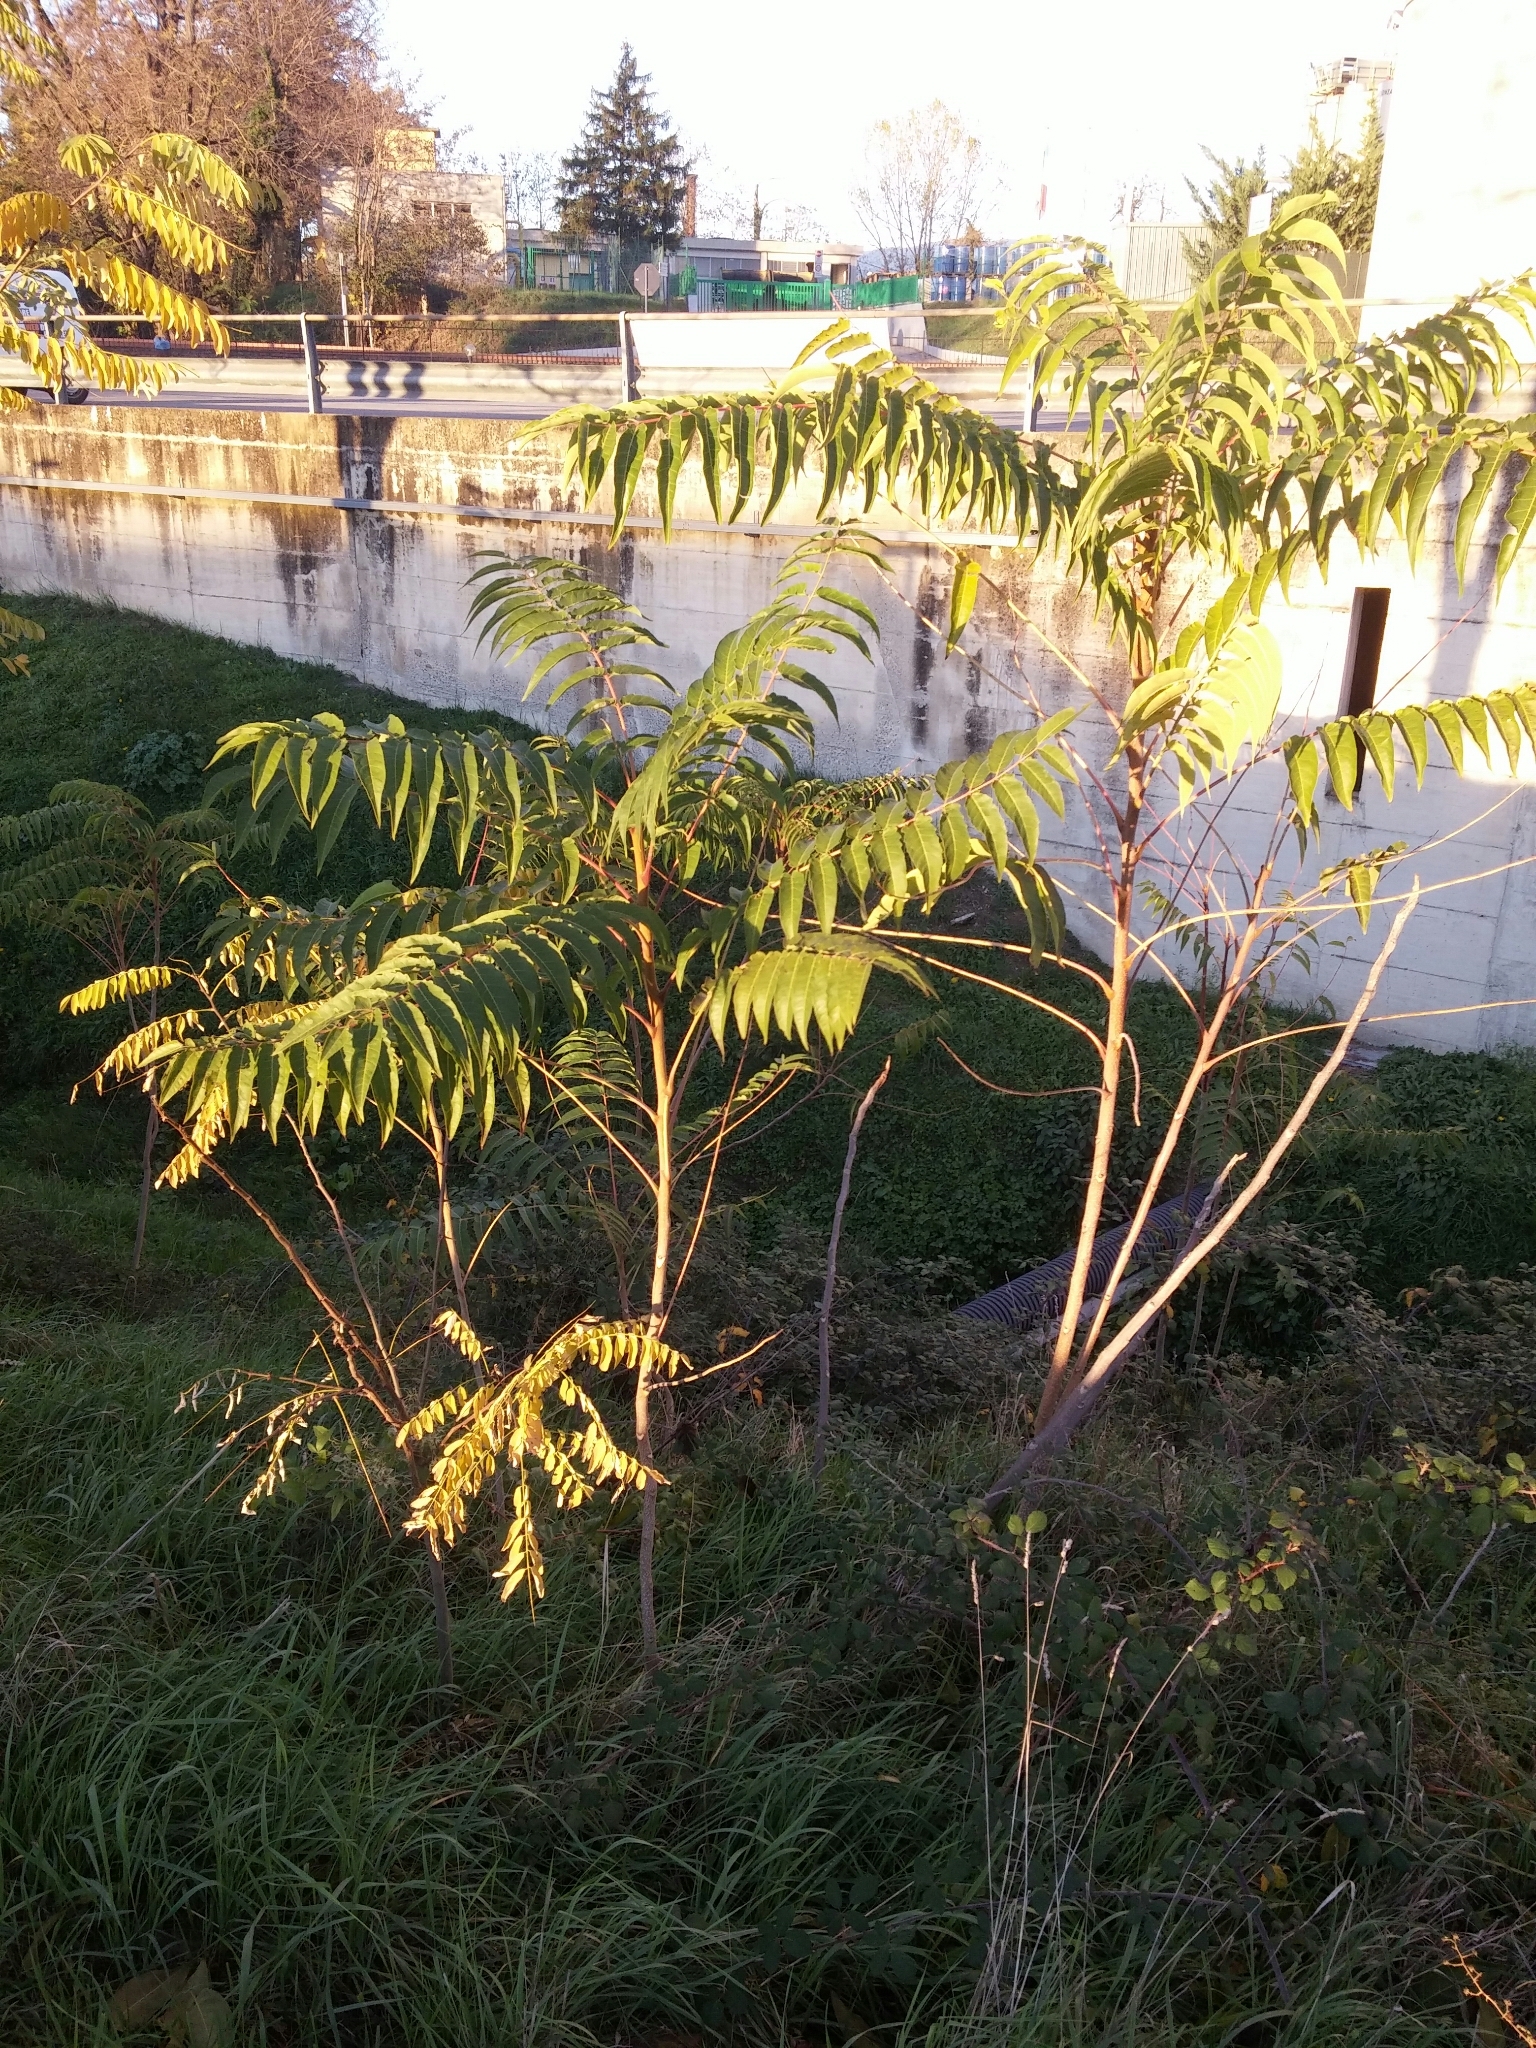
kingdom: Plantae
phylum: Tracheophyta
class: Magnoliopsida
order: Sapindales
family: Simaroubaceae
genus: Ailanthus
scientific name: Ailanthus altissima
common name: Tree-of-heaven
